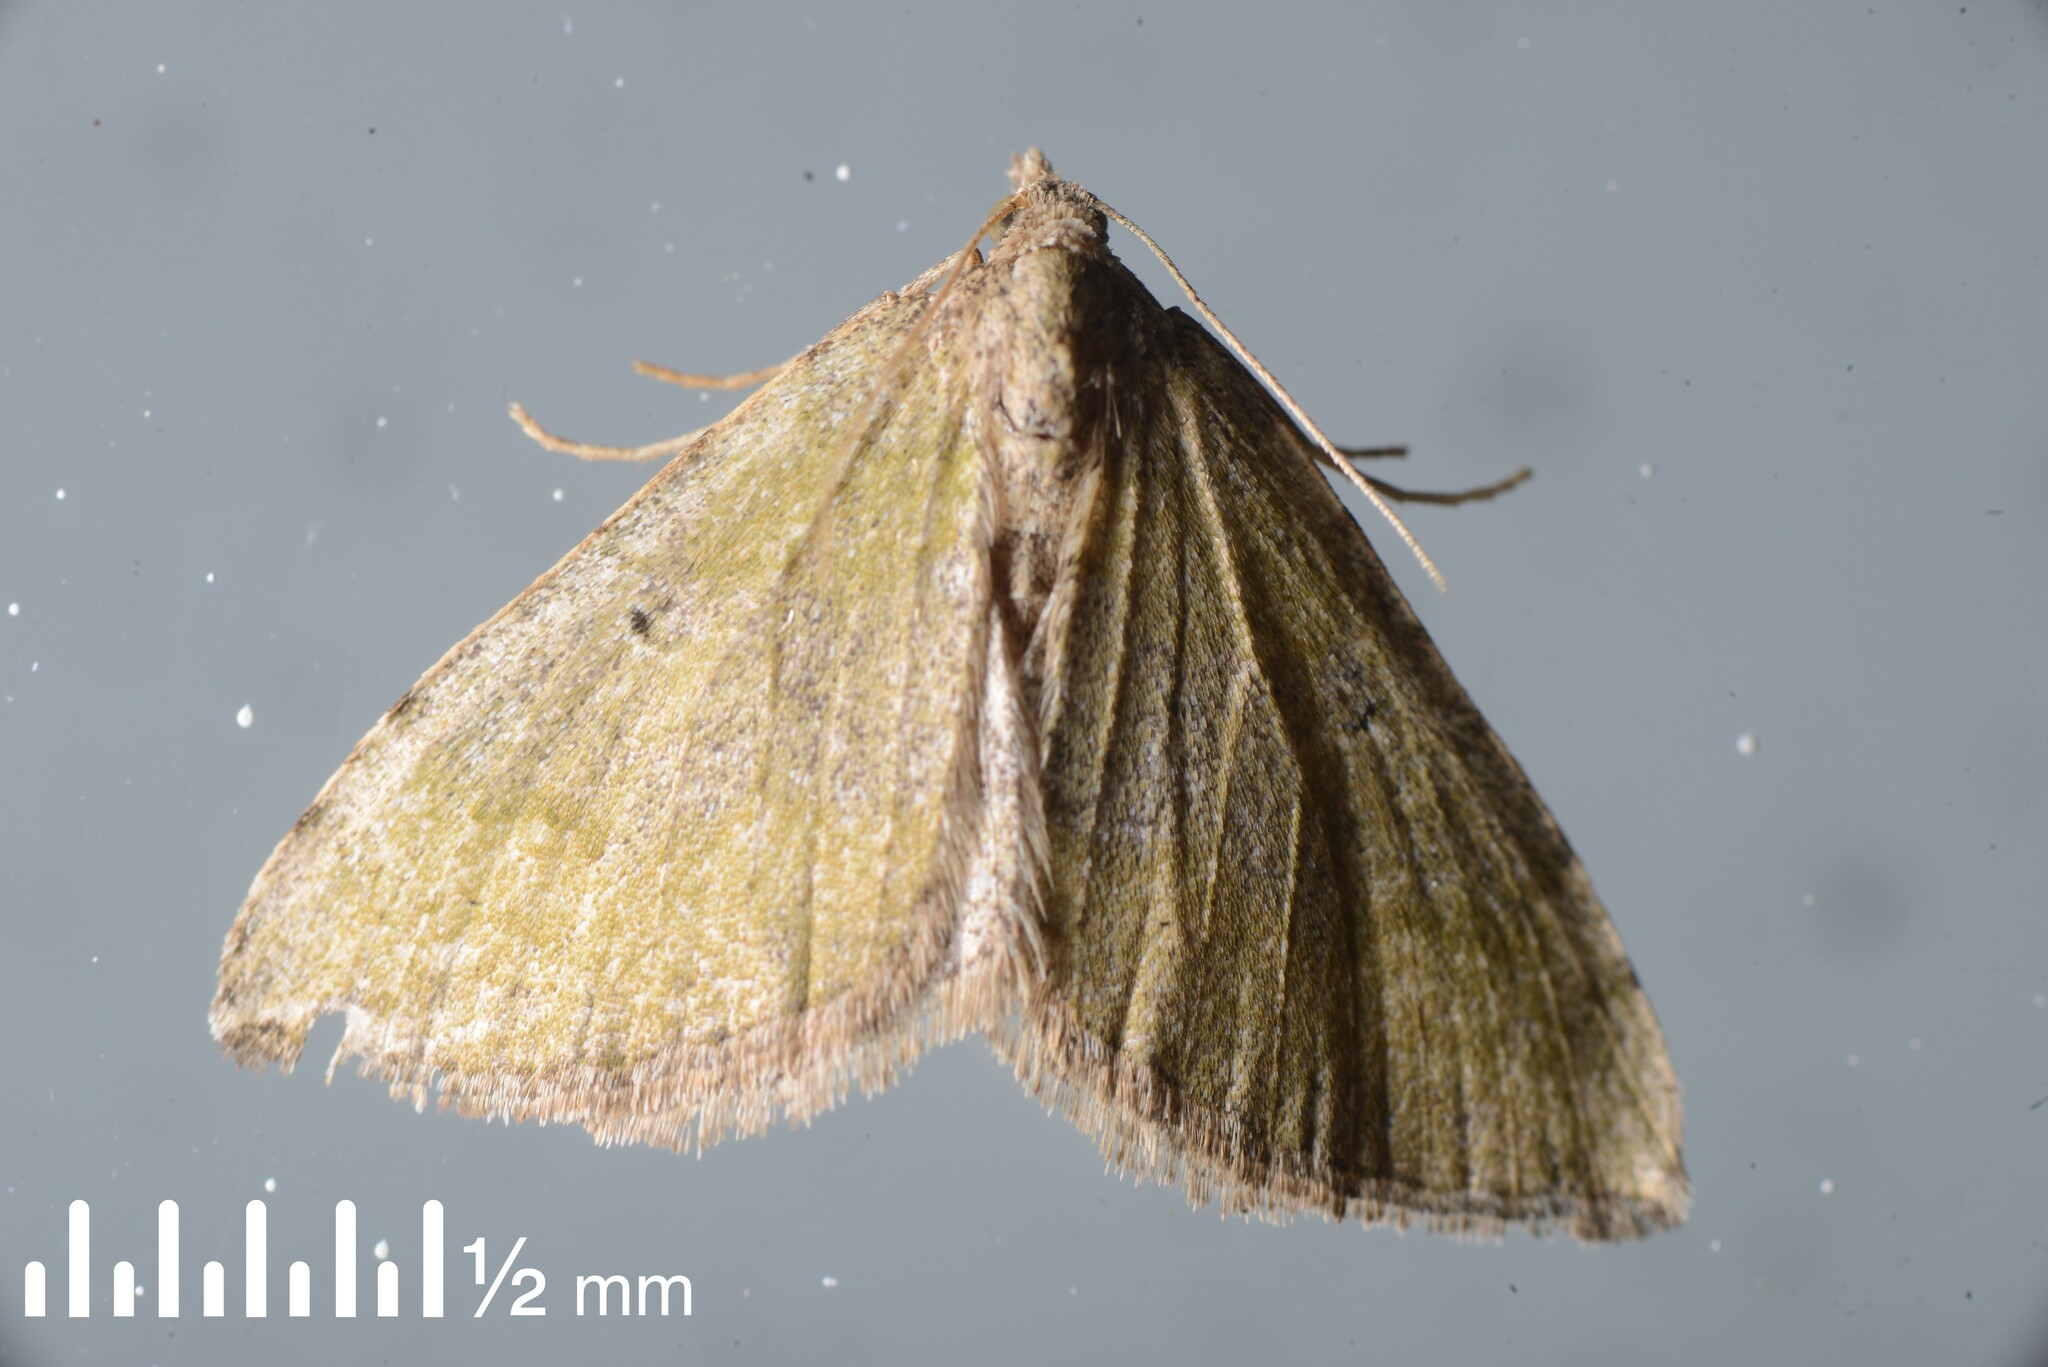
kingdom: Animalia
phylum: Arthropoda
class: Insecta
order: Lepidoptera
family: Geometridae
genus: Epyaxa
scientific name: Epyaxa rosearia
